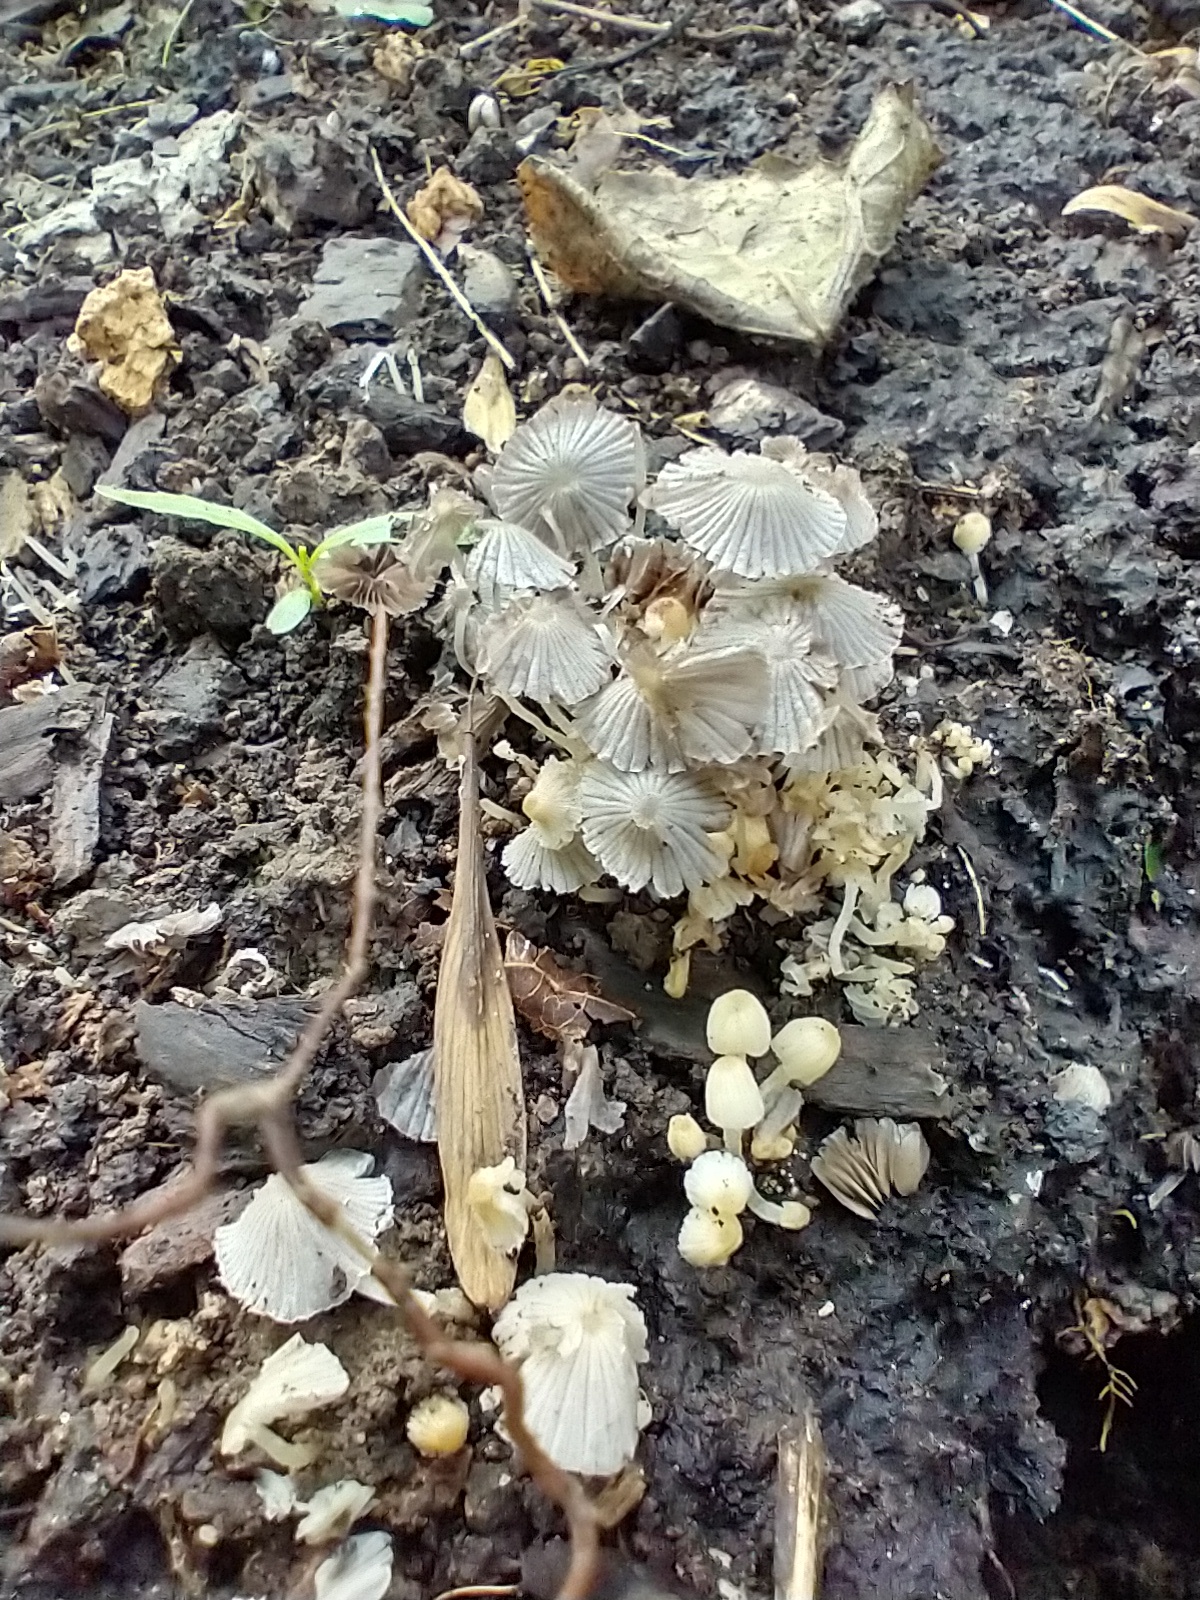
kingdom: Fungi
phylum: Basidiomycota
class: Agaricomycetes
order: Agaricales
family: Psathyrellaceae
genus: Coprinellus
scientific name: Coprinellus disseminatus
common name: Fairies' bonnets
